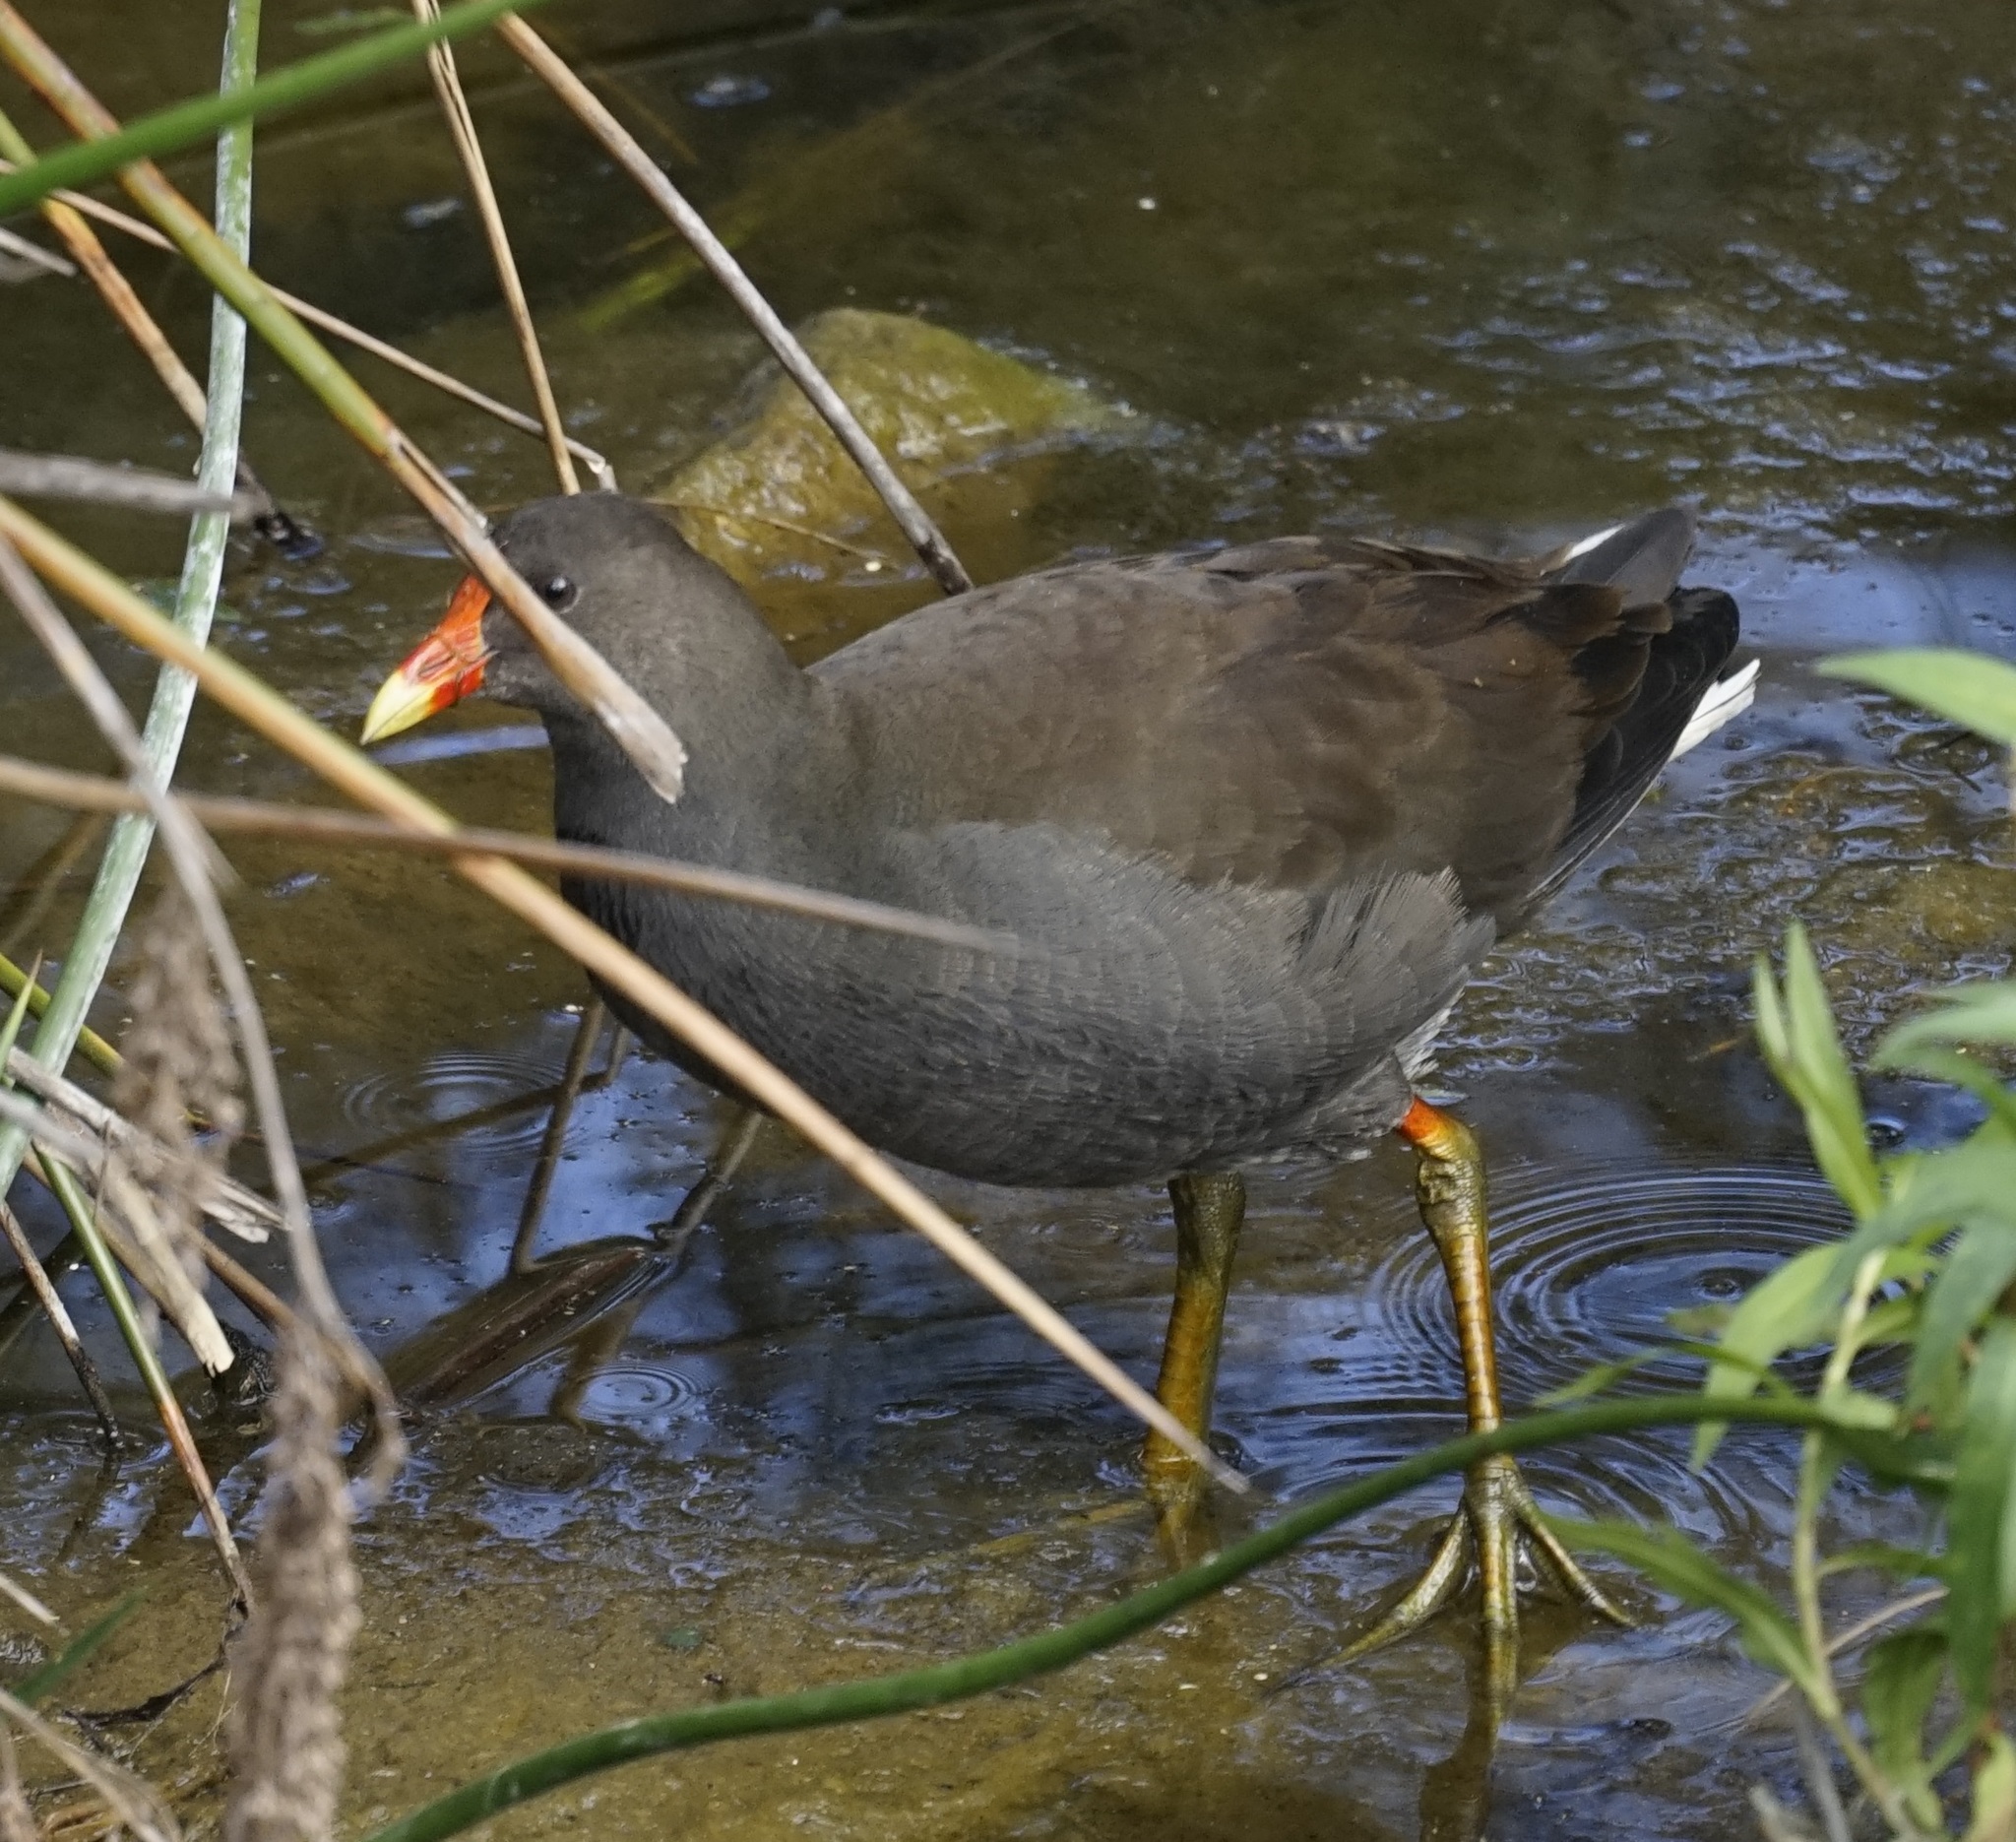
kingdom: Animalia
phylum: Chordata
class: Aves
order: Gruiformes
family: Rallidae
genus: Gallinula
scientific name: Gallinula tenebrosa
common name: Dusky moorhen
